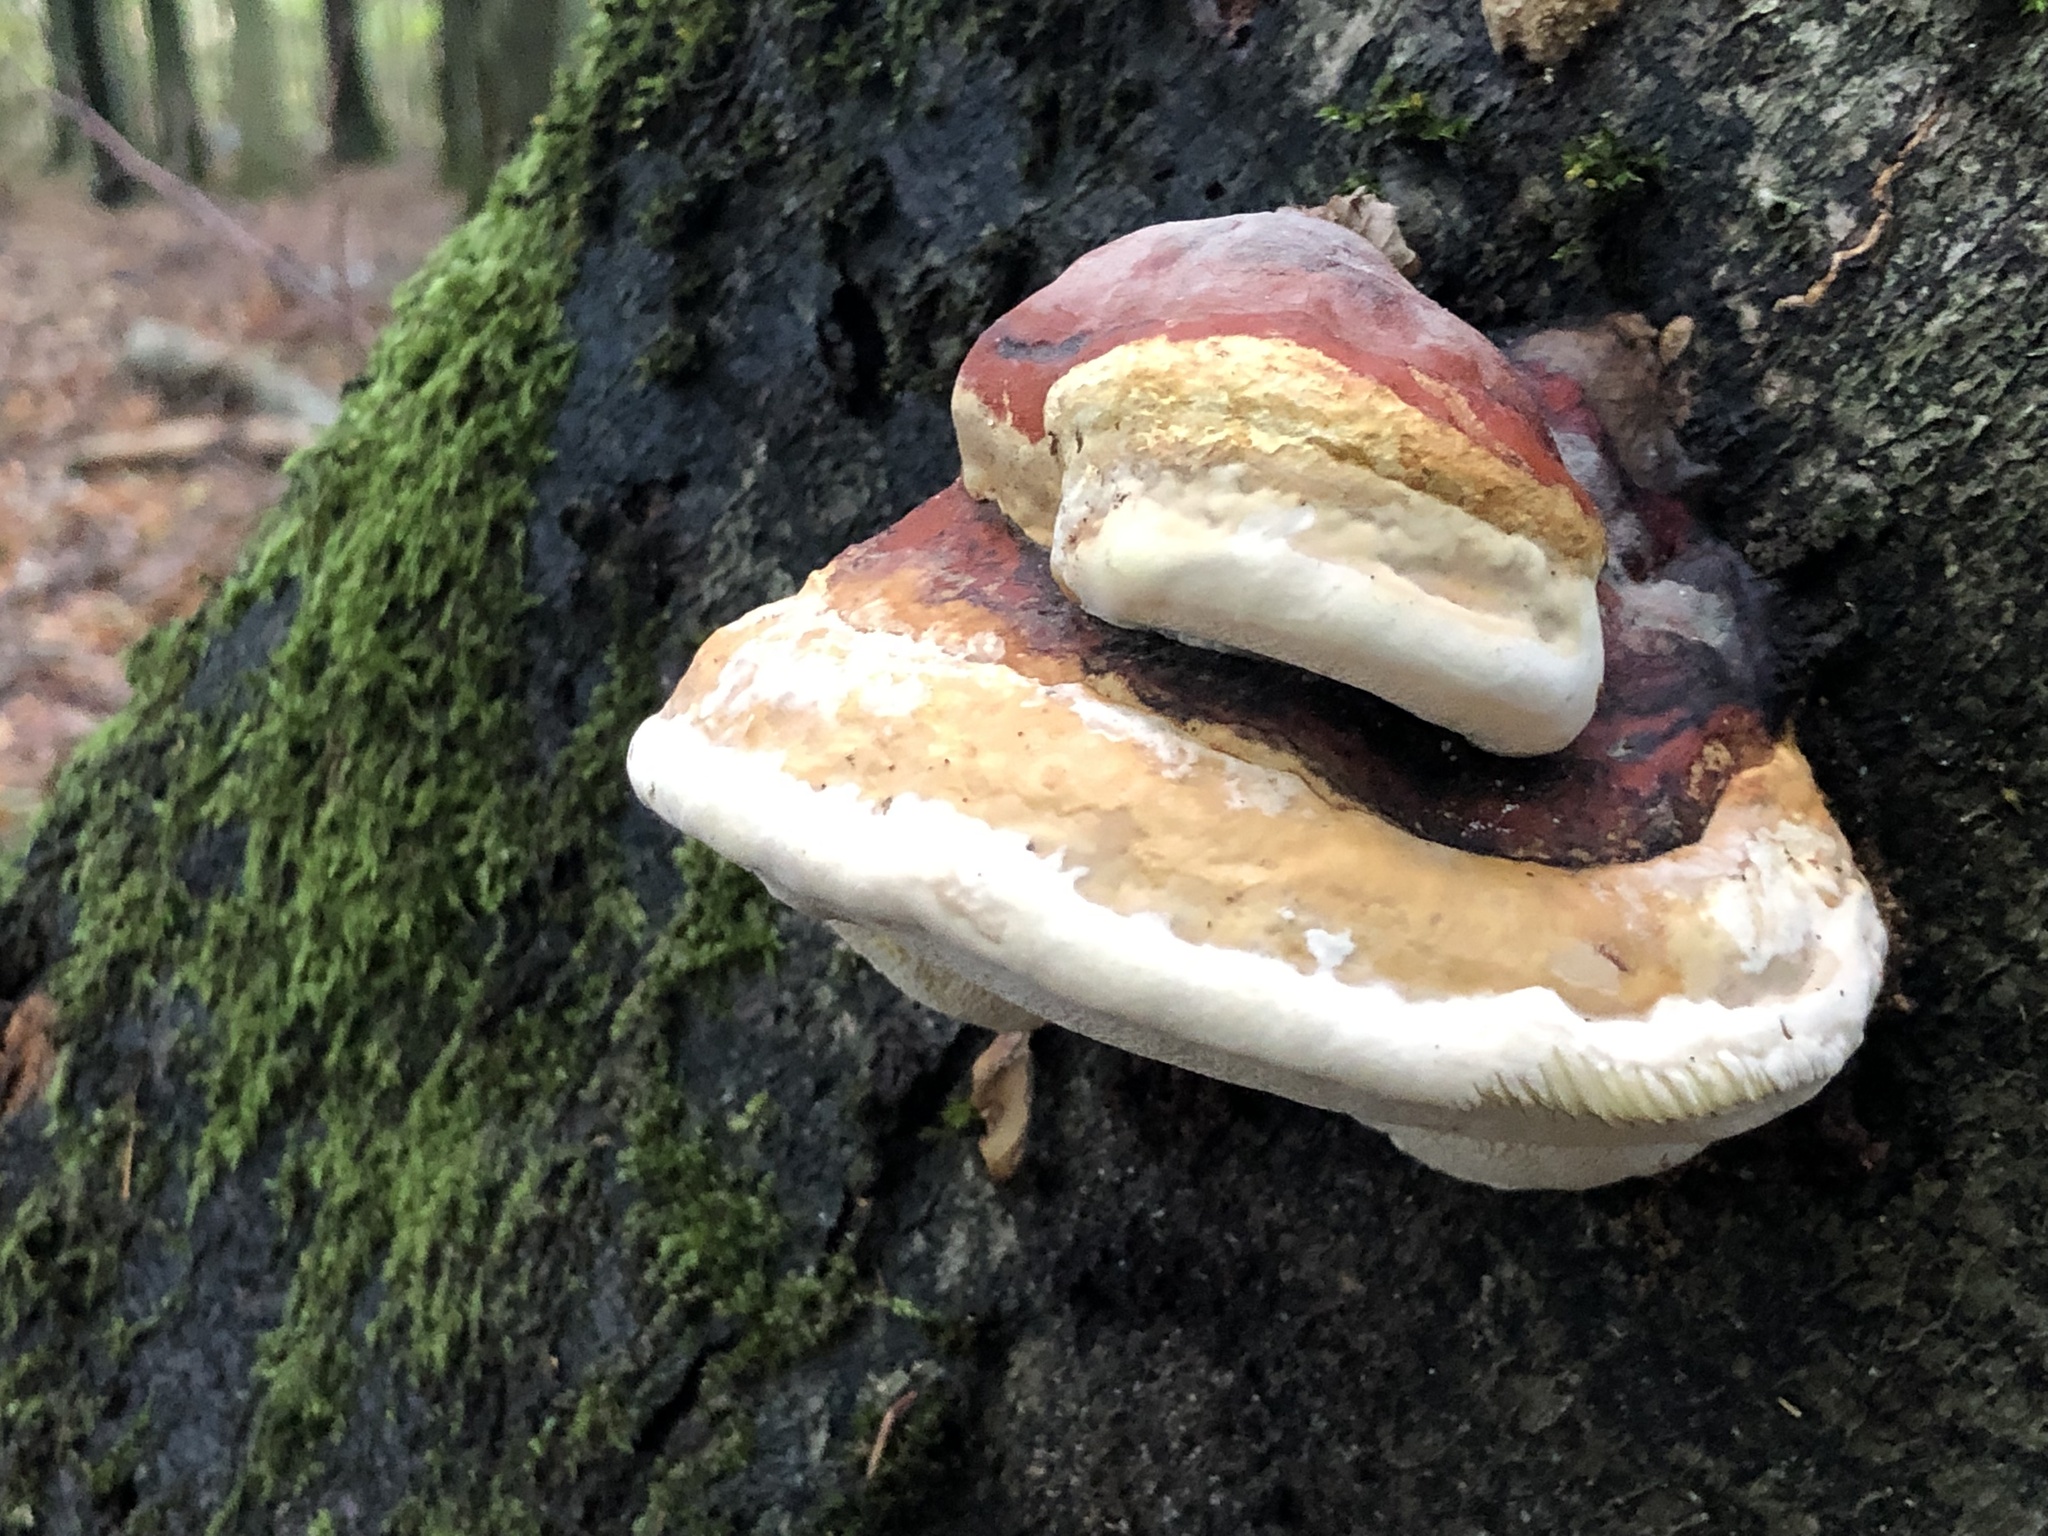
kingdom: Fungi
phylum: Basidiomycota
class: Agaricomycetes
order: Polyporales
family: Fomitopsidaceae
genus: Fomitopsis
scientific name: Fomitopsis pinicola
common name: Red-belted bracket
